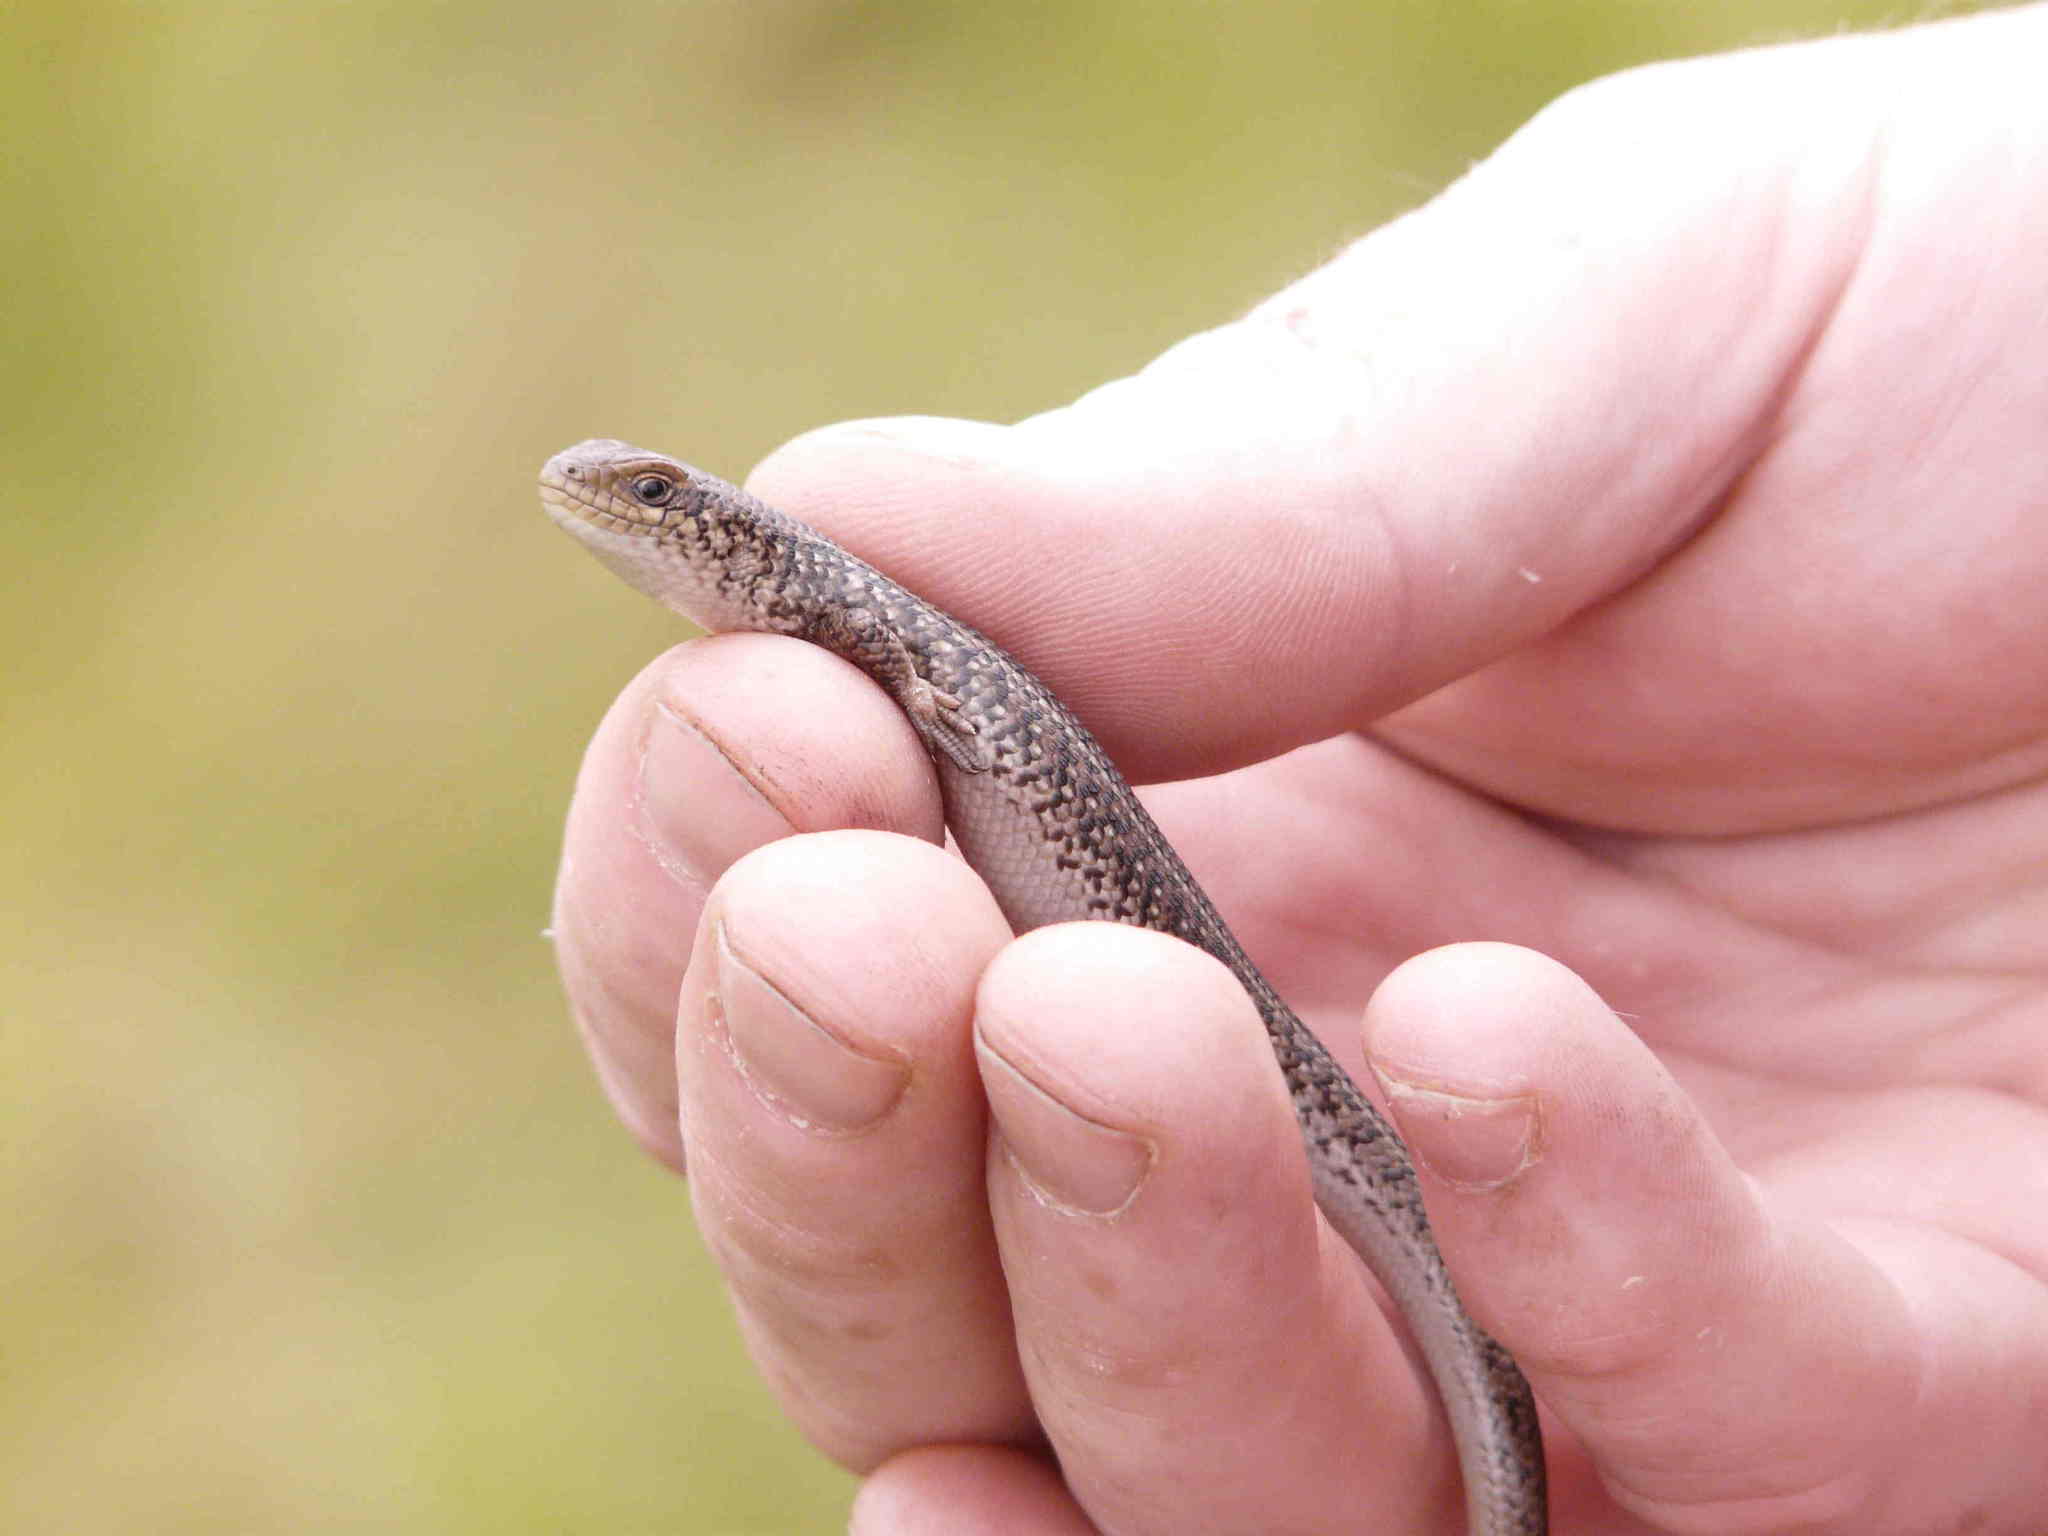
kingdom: Animalia
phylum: Chordata
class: Squamata
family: Scincidae
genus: Trachylepis
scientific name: Trachylepis capensis
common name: Cape skink
